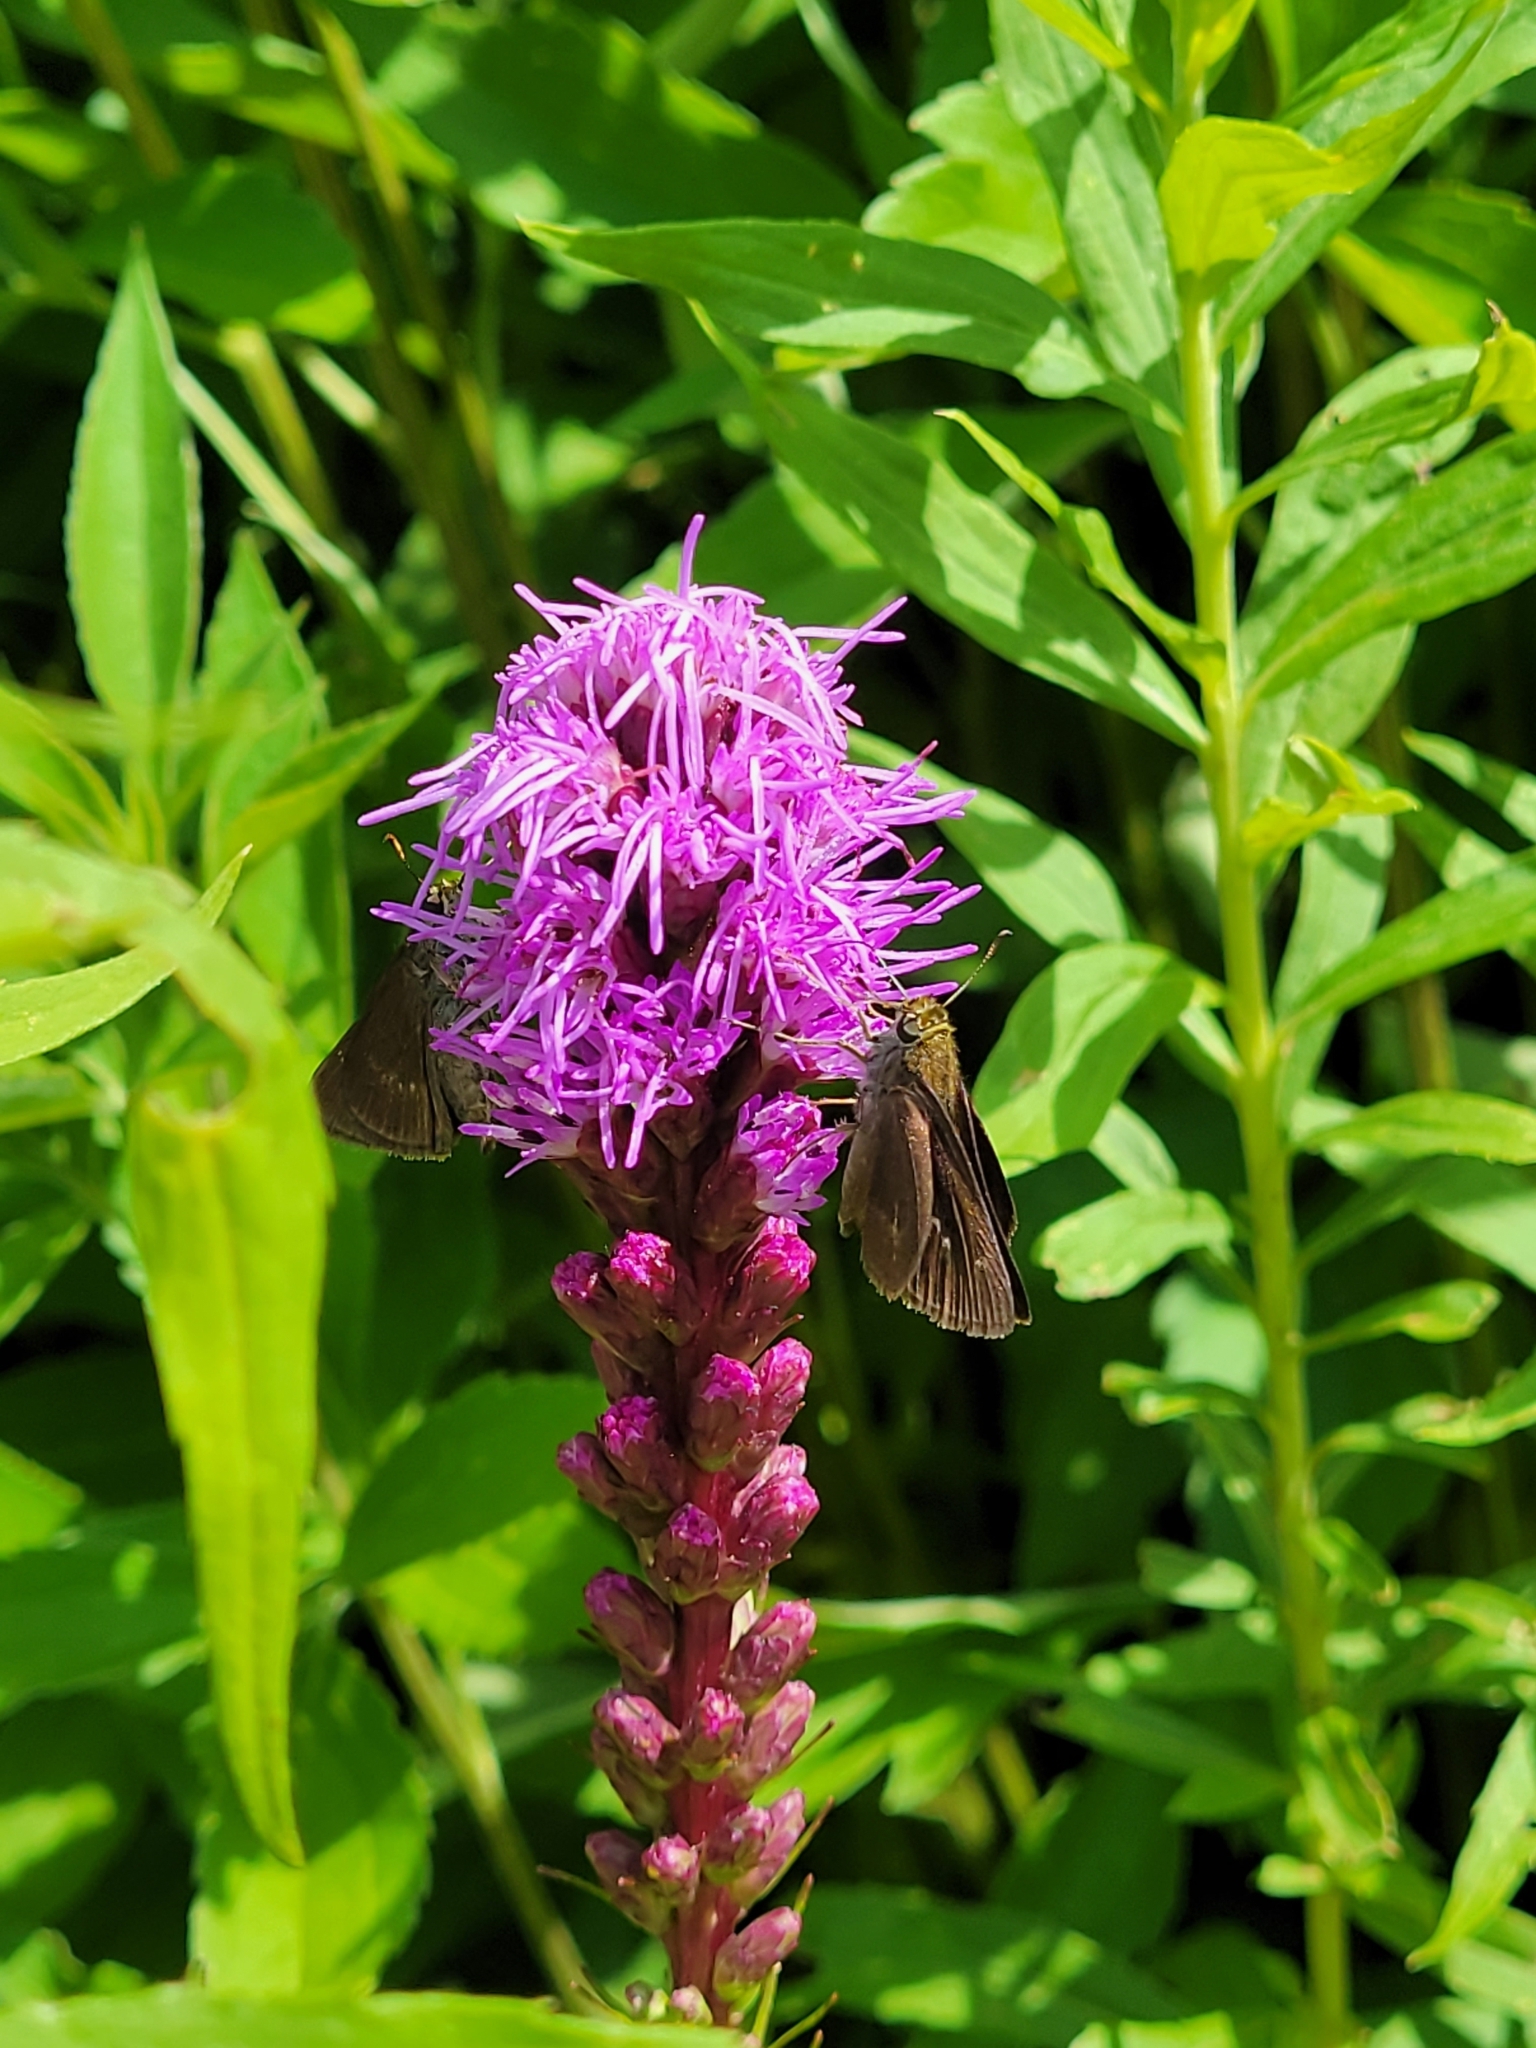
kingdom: Animalia
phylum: Arthropoda
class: Insecta
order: Lepidoptera
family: Hesperiidae
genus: Euphyes
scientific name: Euphyes vestris
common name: Dun skipper
